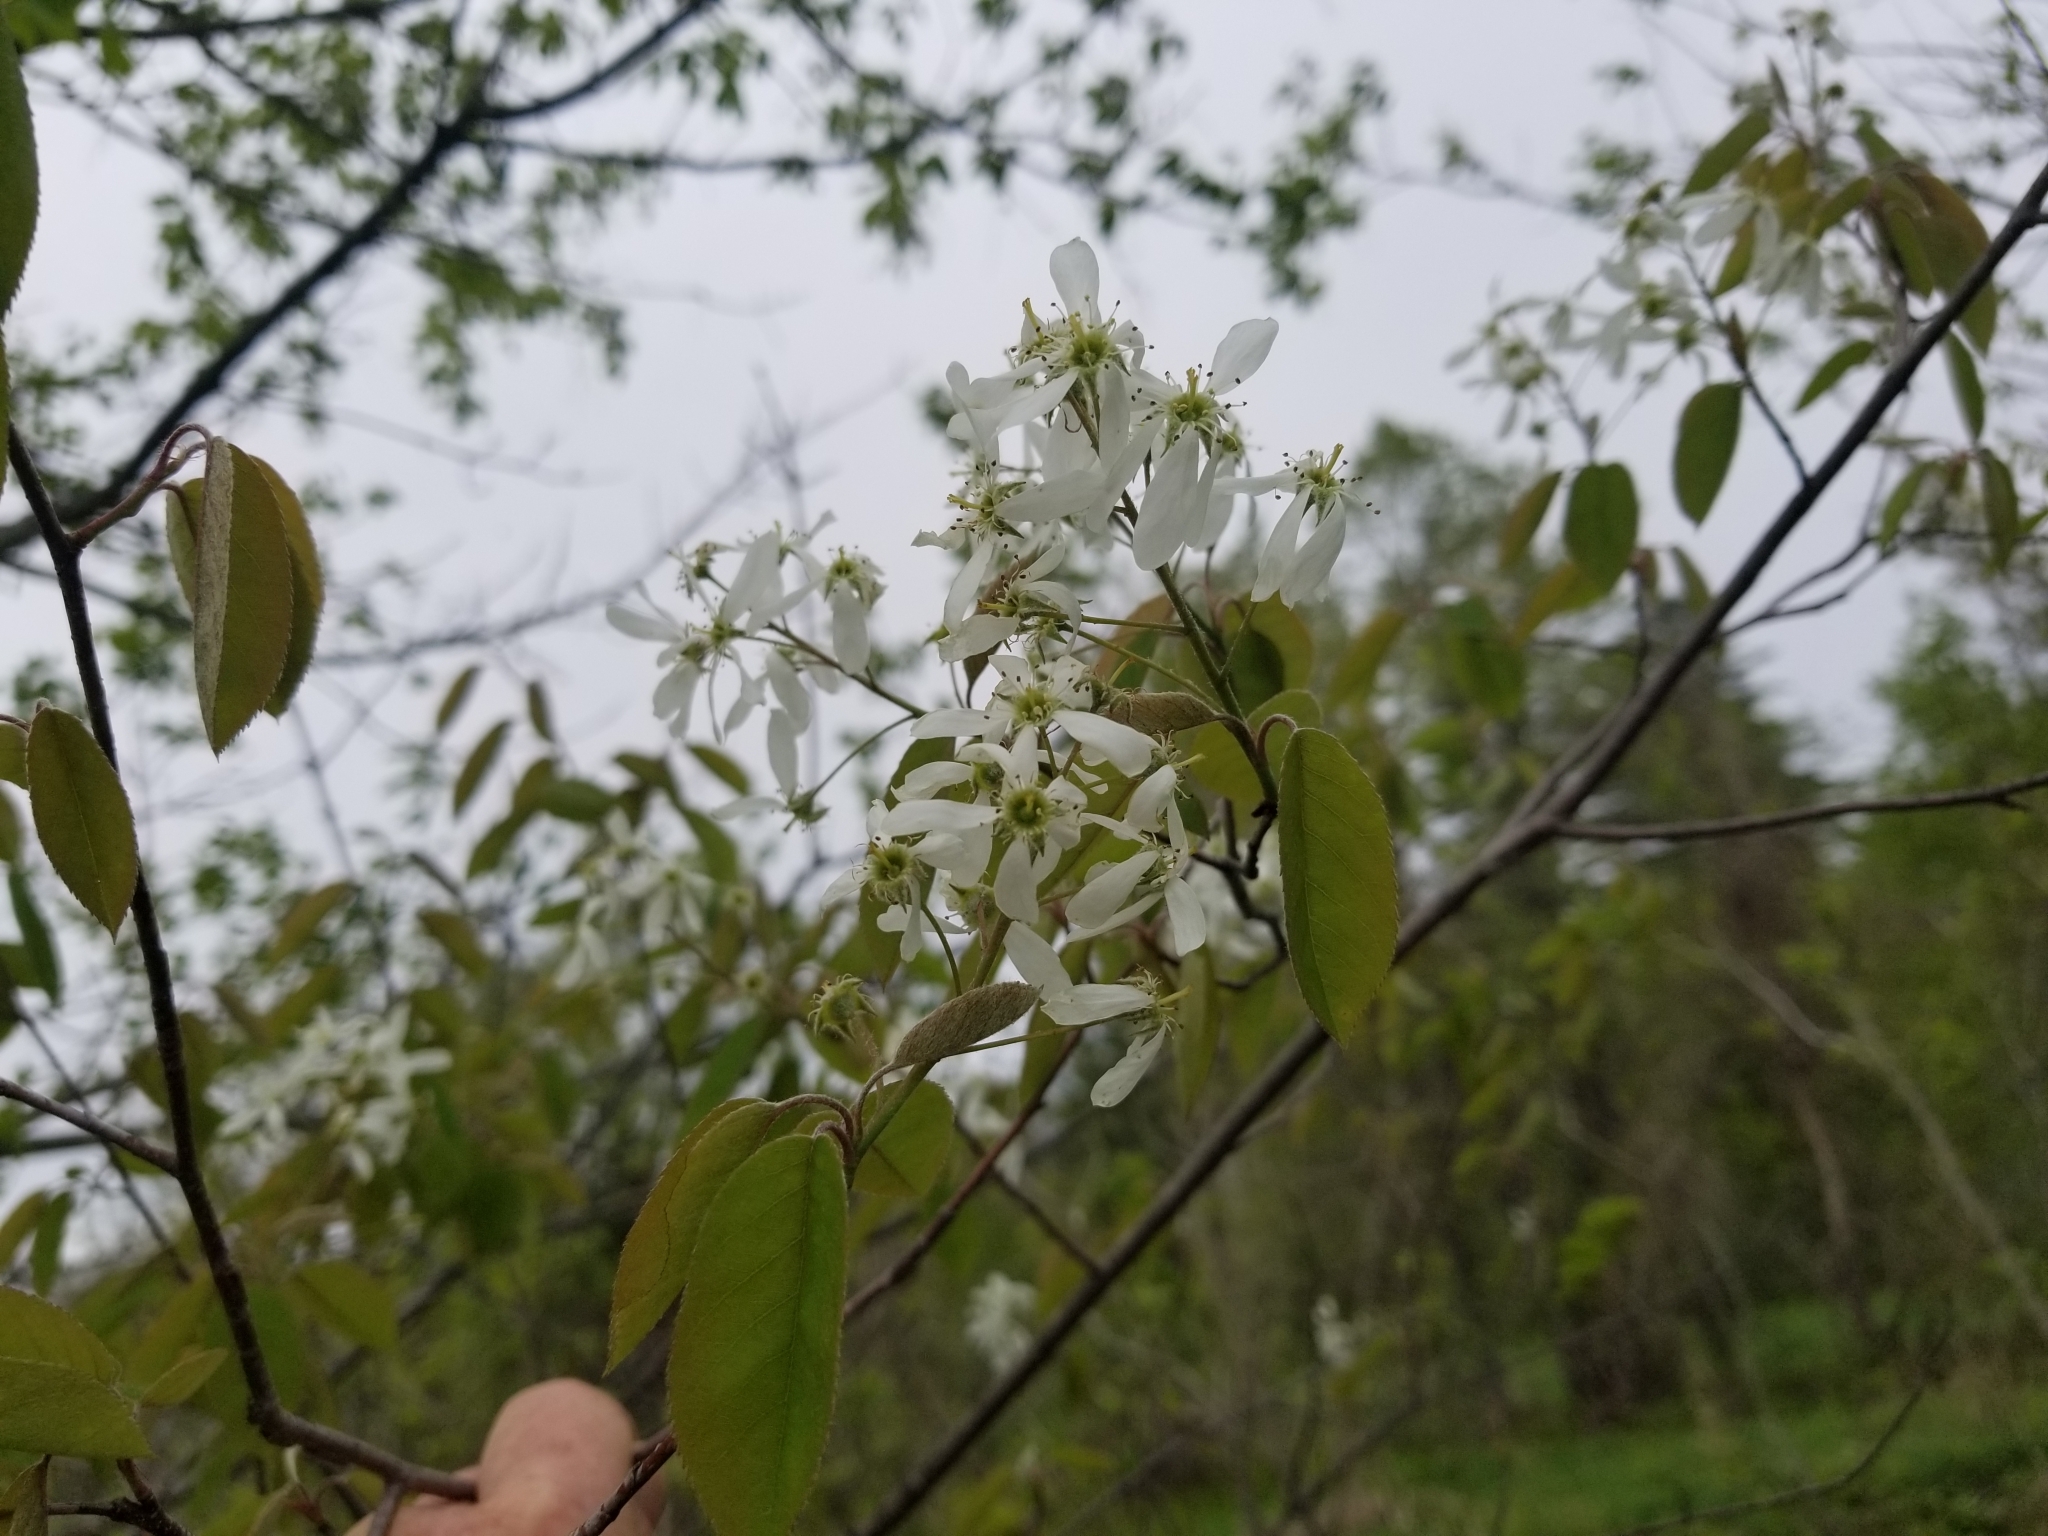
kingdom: Plantae
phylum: Tracheophyta
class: Magnoliopsida
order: Rosales
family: Rosaceae
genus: Amelanchier
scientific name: Amelanchier arborea
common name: Downy serviceberry
